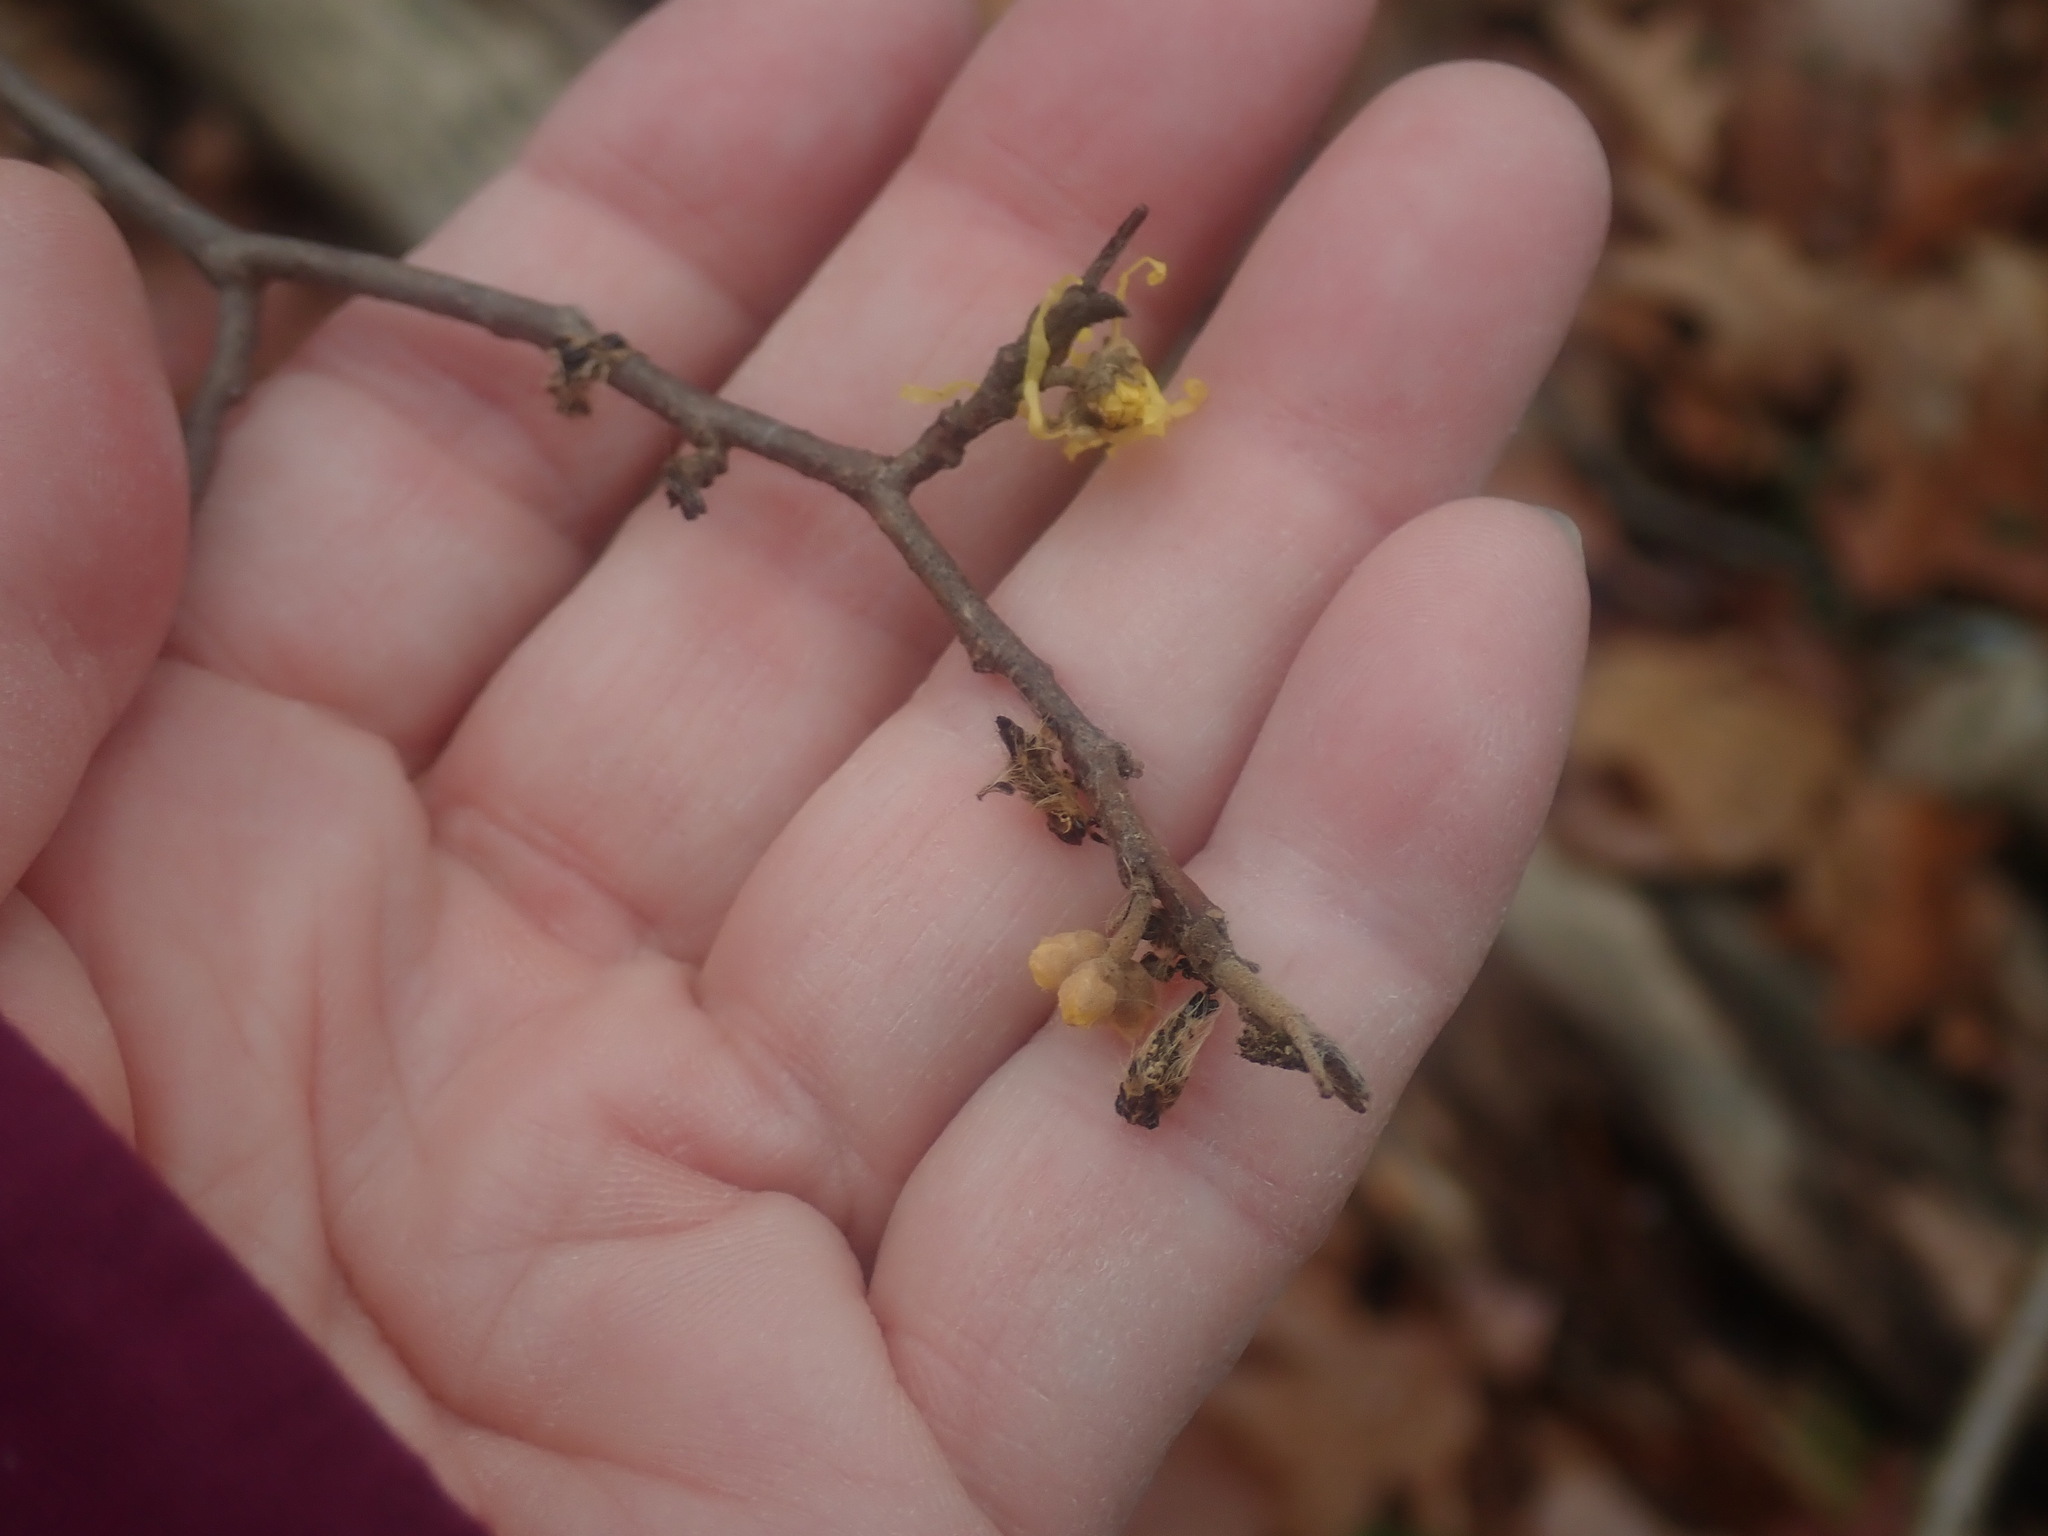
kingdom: Plantae
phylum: Tracheophyta
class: Magnoliopsida
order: Saxifragales
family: Hamamelidaceae
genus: Hamamelis
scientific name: Hamamelis virginiana
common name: Witch-hazel
